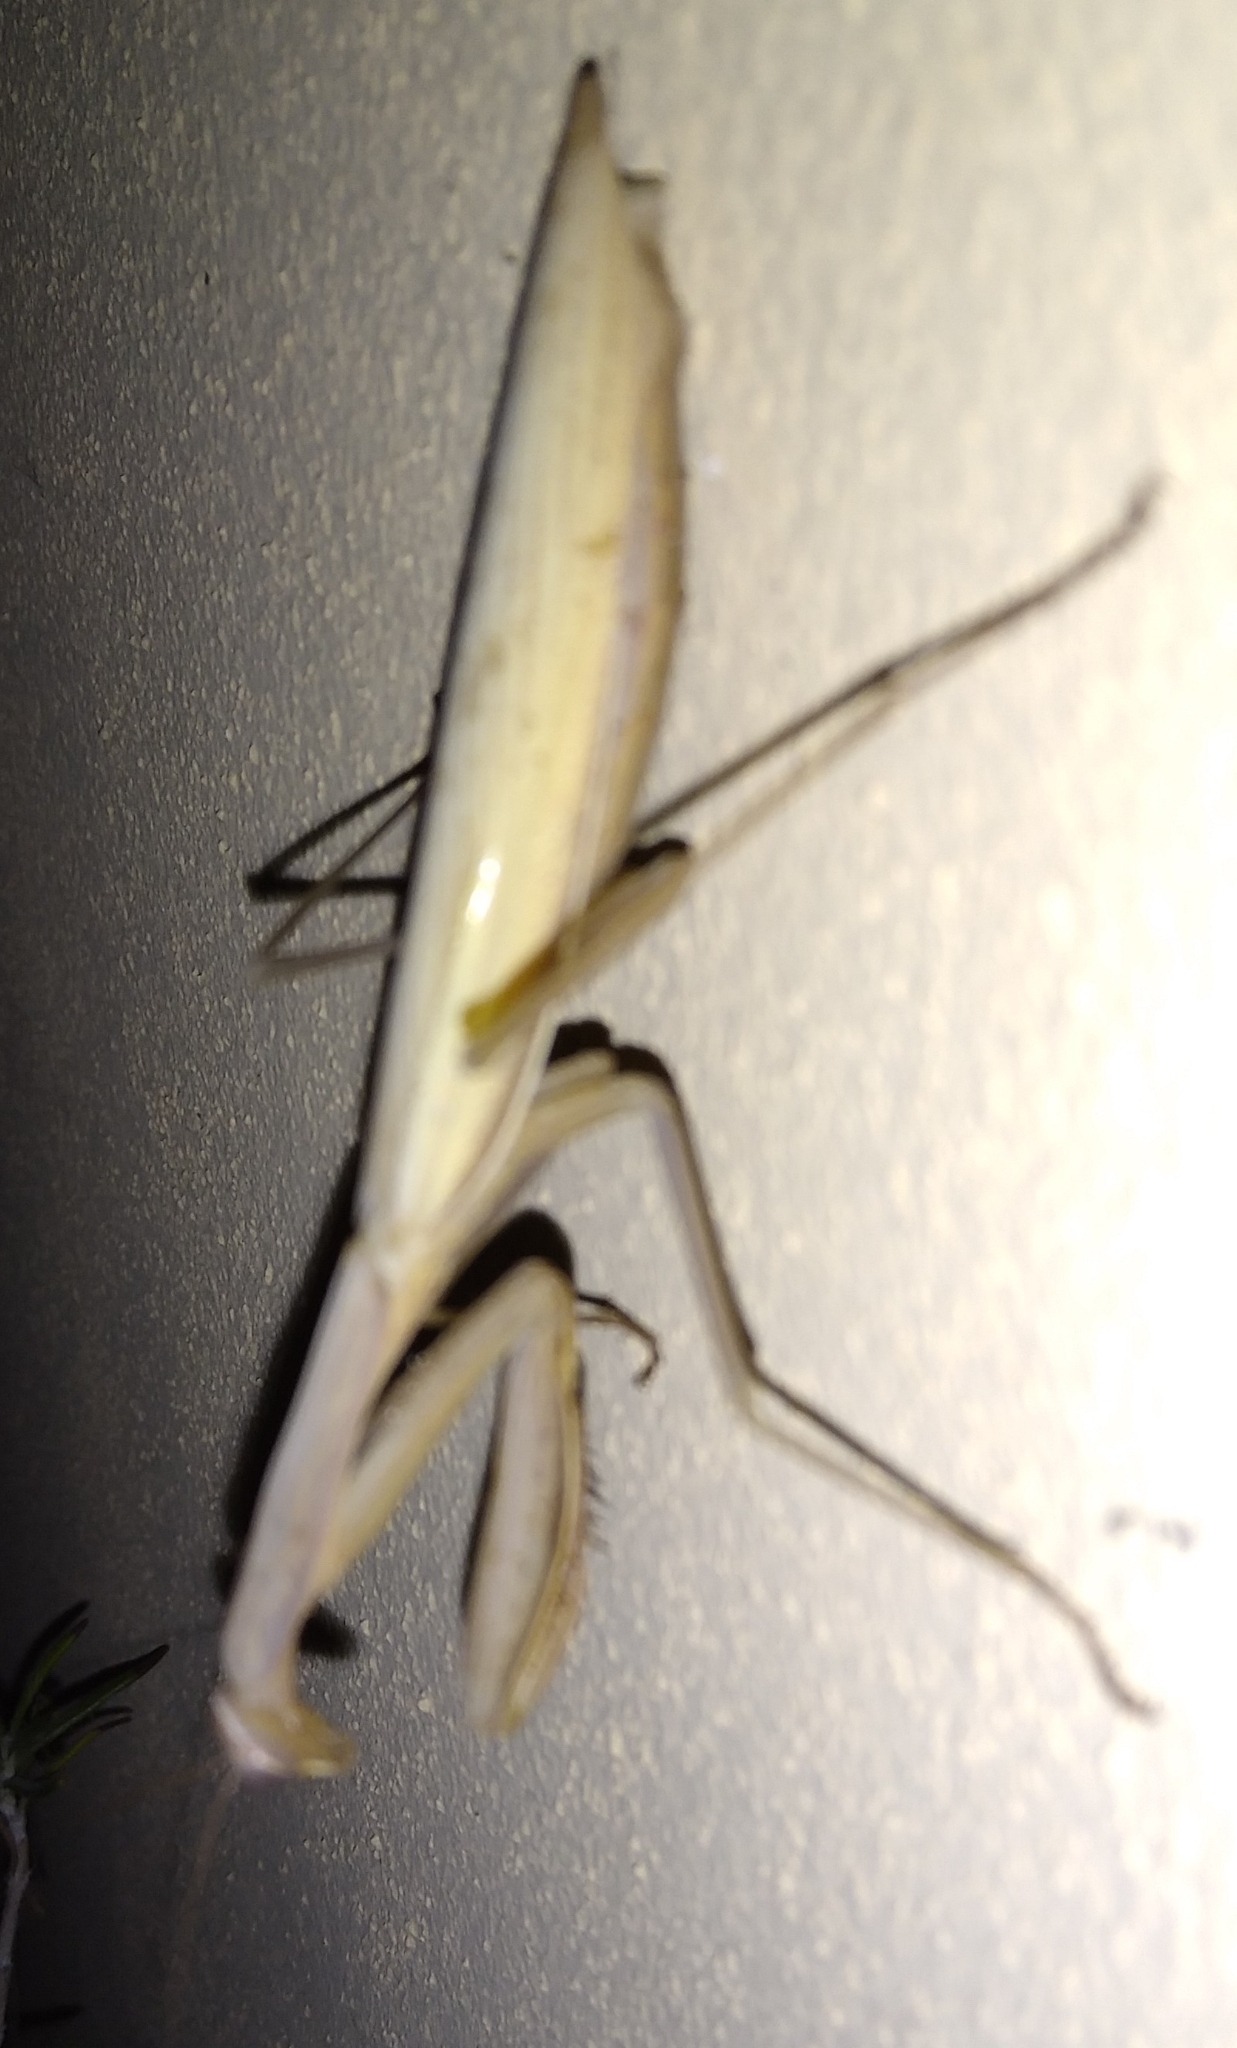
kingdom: Animalia
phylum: Arthropoda
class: Insecta
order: Mantodea
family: Mantidae
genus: Mantis
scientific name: Mantis religiosa
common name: Praying mantis
